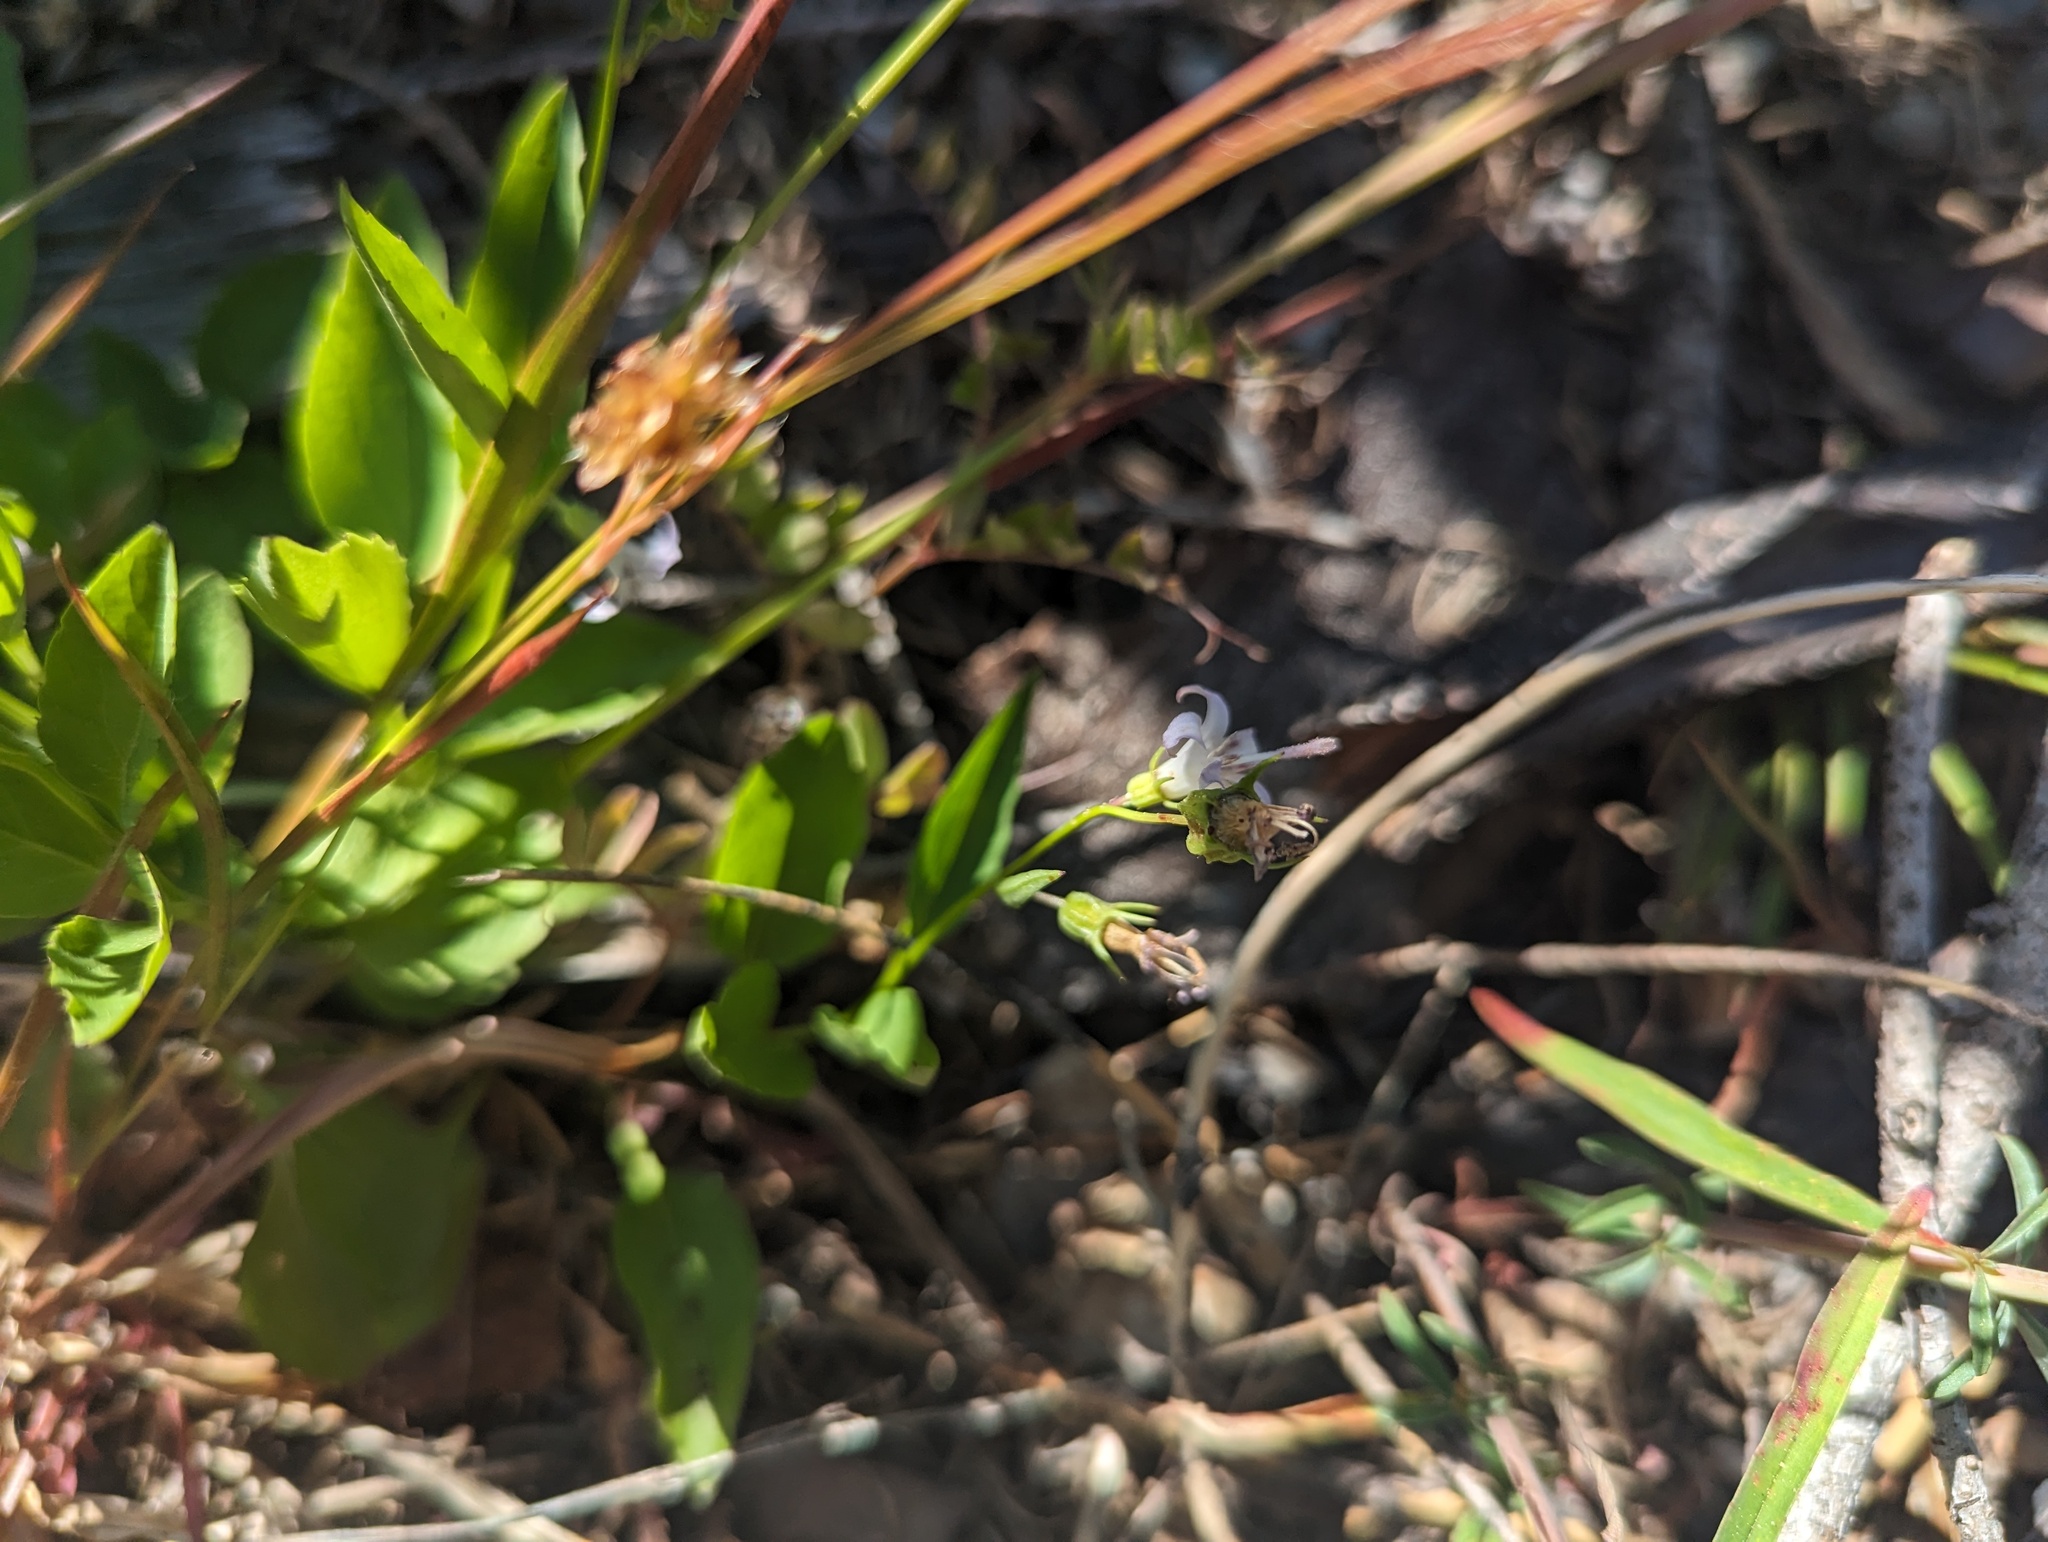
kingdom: Plantae
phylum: Tracheophyta
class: Magnoliopsida
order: Asterales
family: Campanulaceae
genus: Campanula
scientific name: Campanula scouleri
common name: Scouler's harebell
